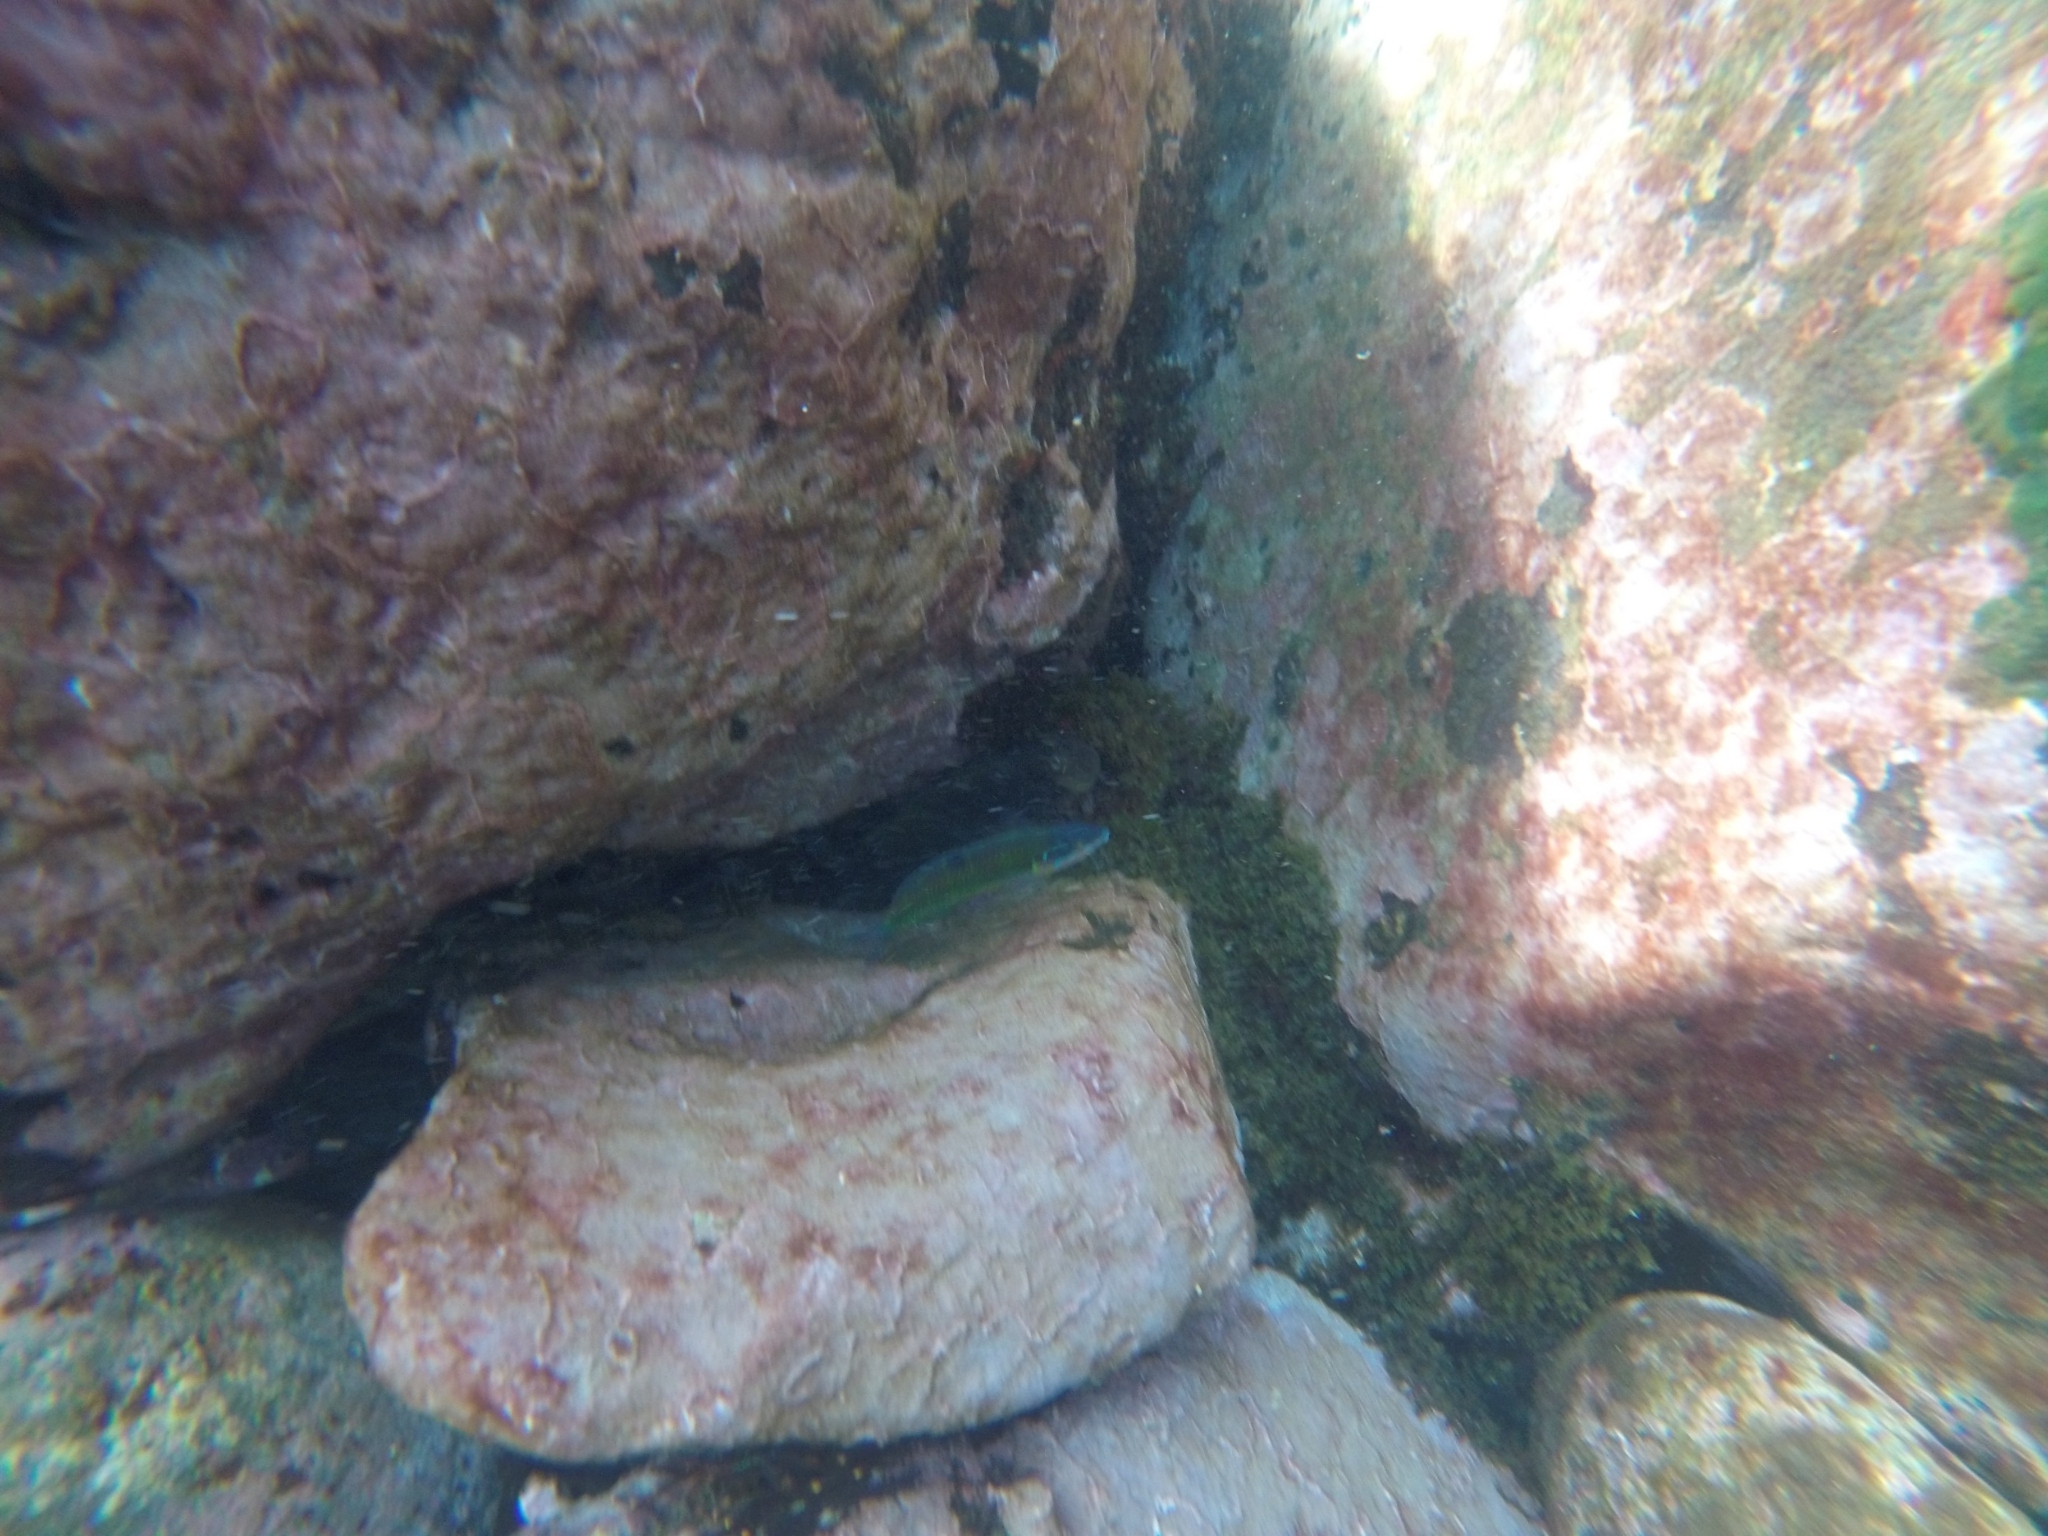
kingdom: Animalia
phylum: Chordata
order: Perciformes
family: Labridae
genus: Thalassoma
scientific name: Thalassoma pavo
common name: Ornate wrasse
